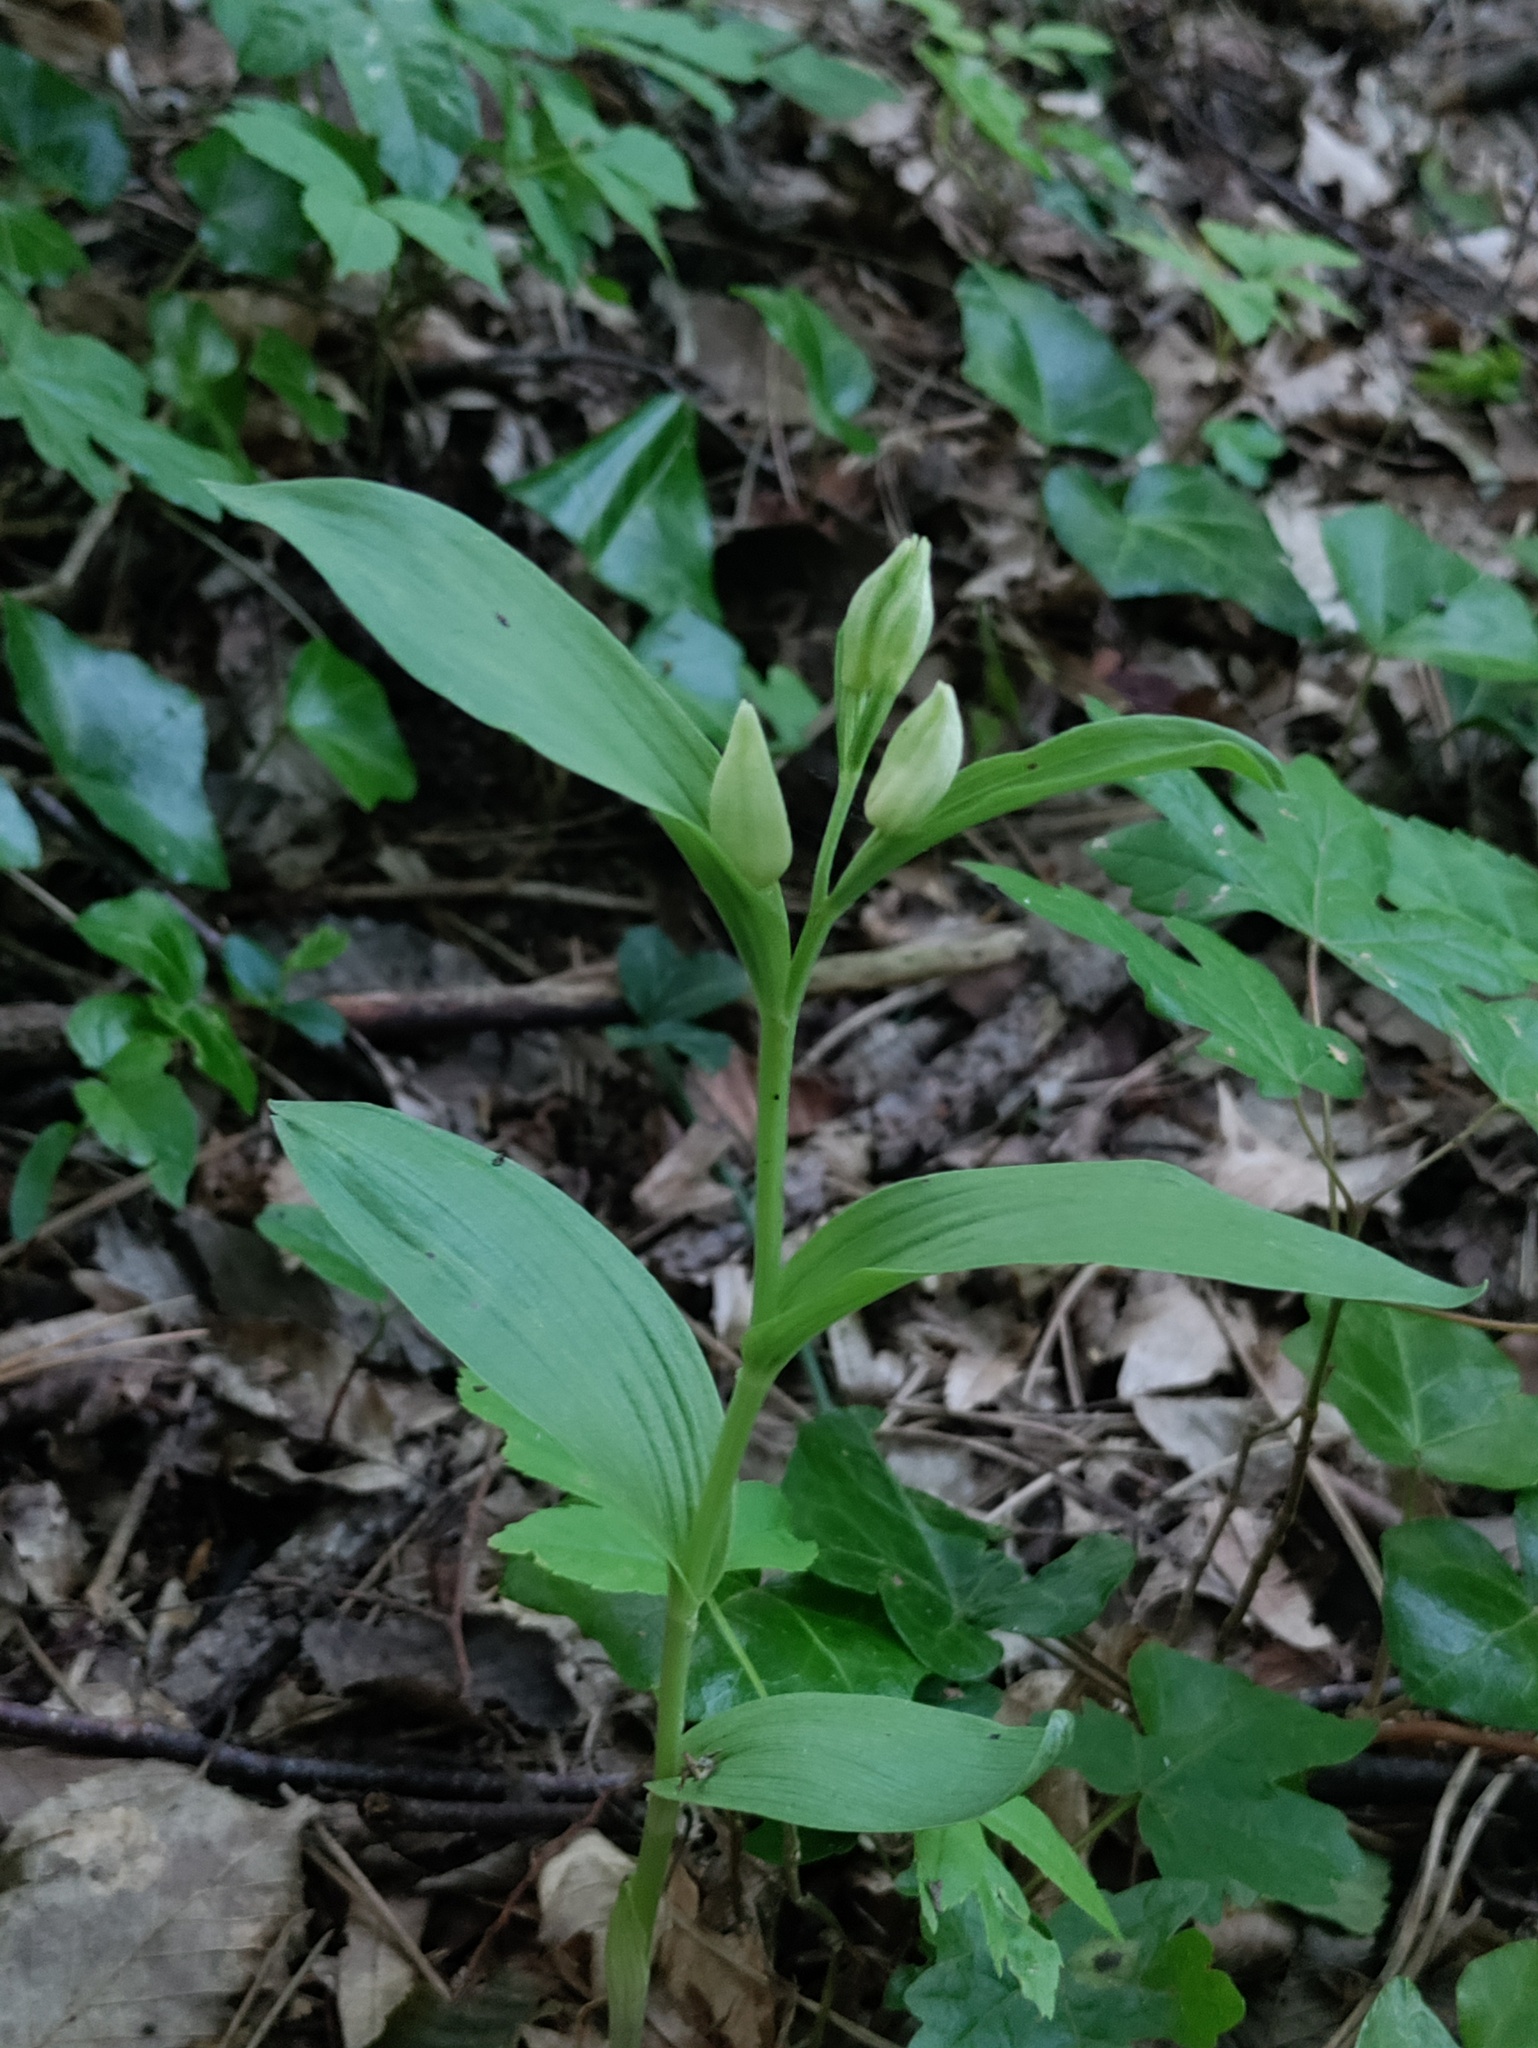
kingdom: Plantae
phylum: Tracheophyta
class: Liliopsida
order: Asparagales
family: Orchidaceae
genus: Cephalanthera
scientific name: Cephalanthera damasonium
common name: White helleborine
